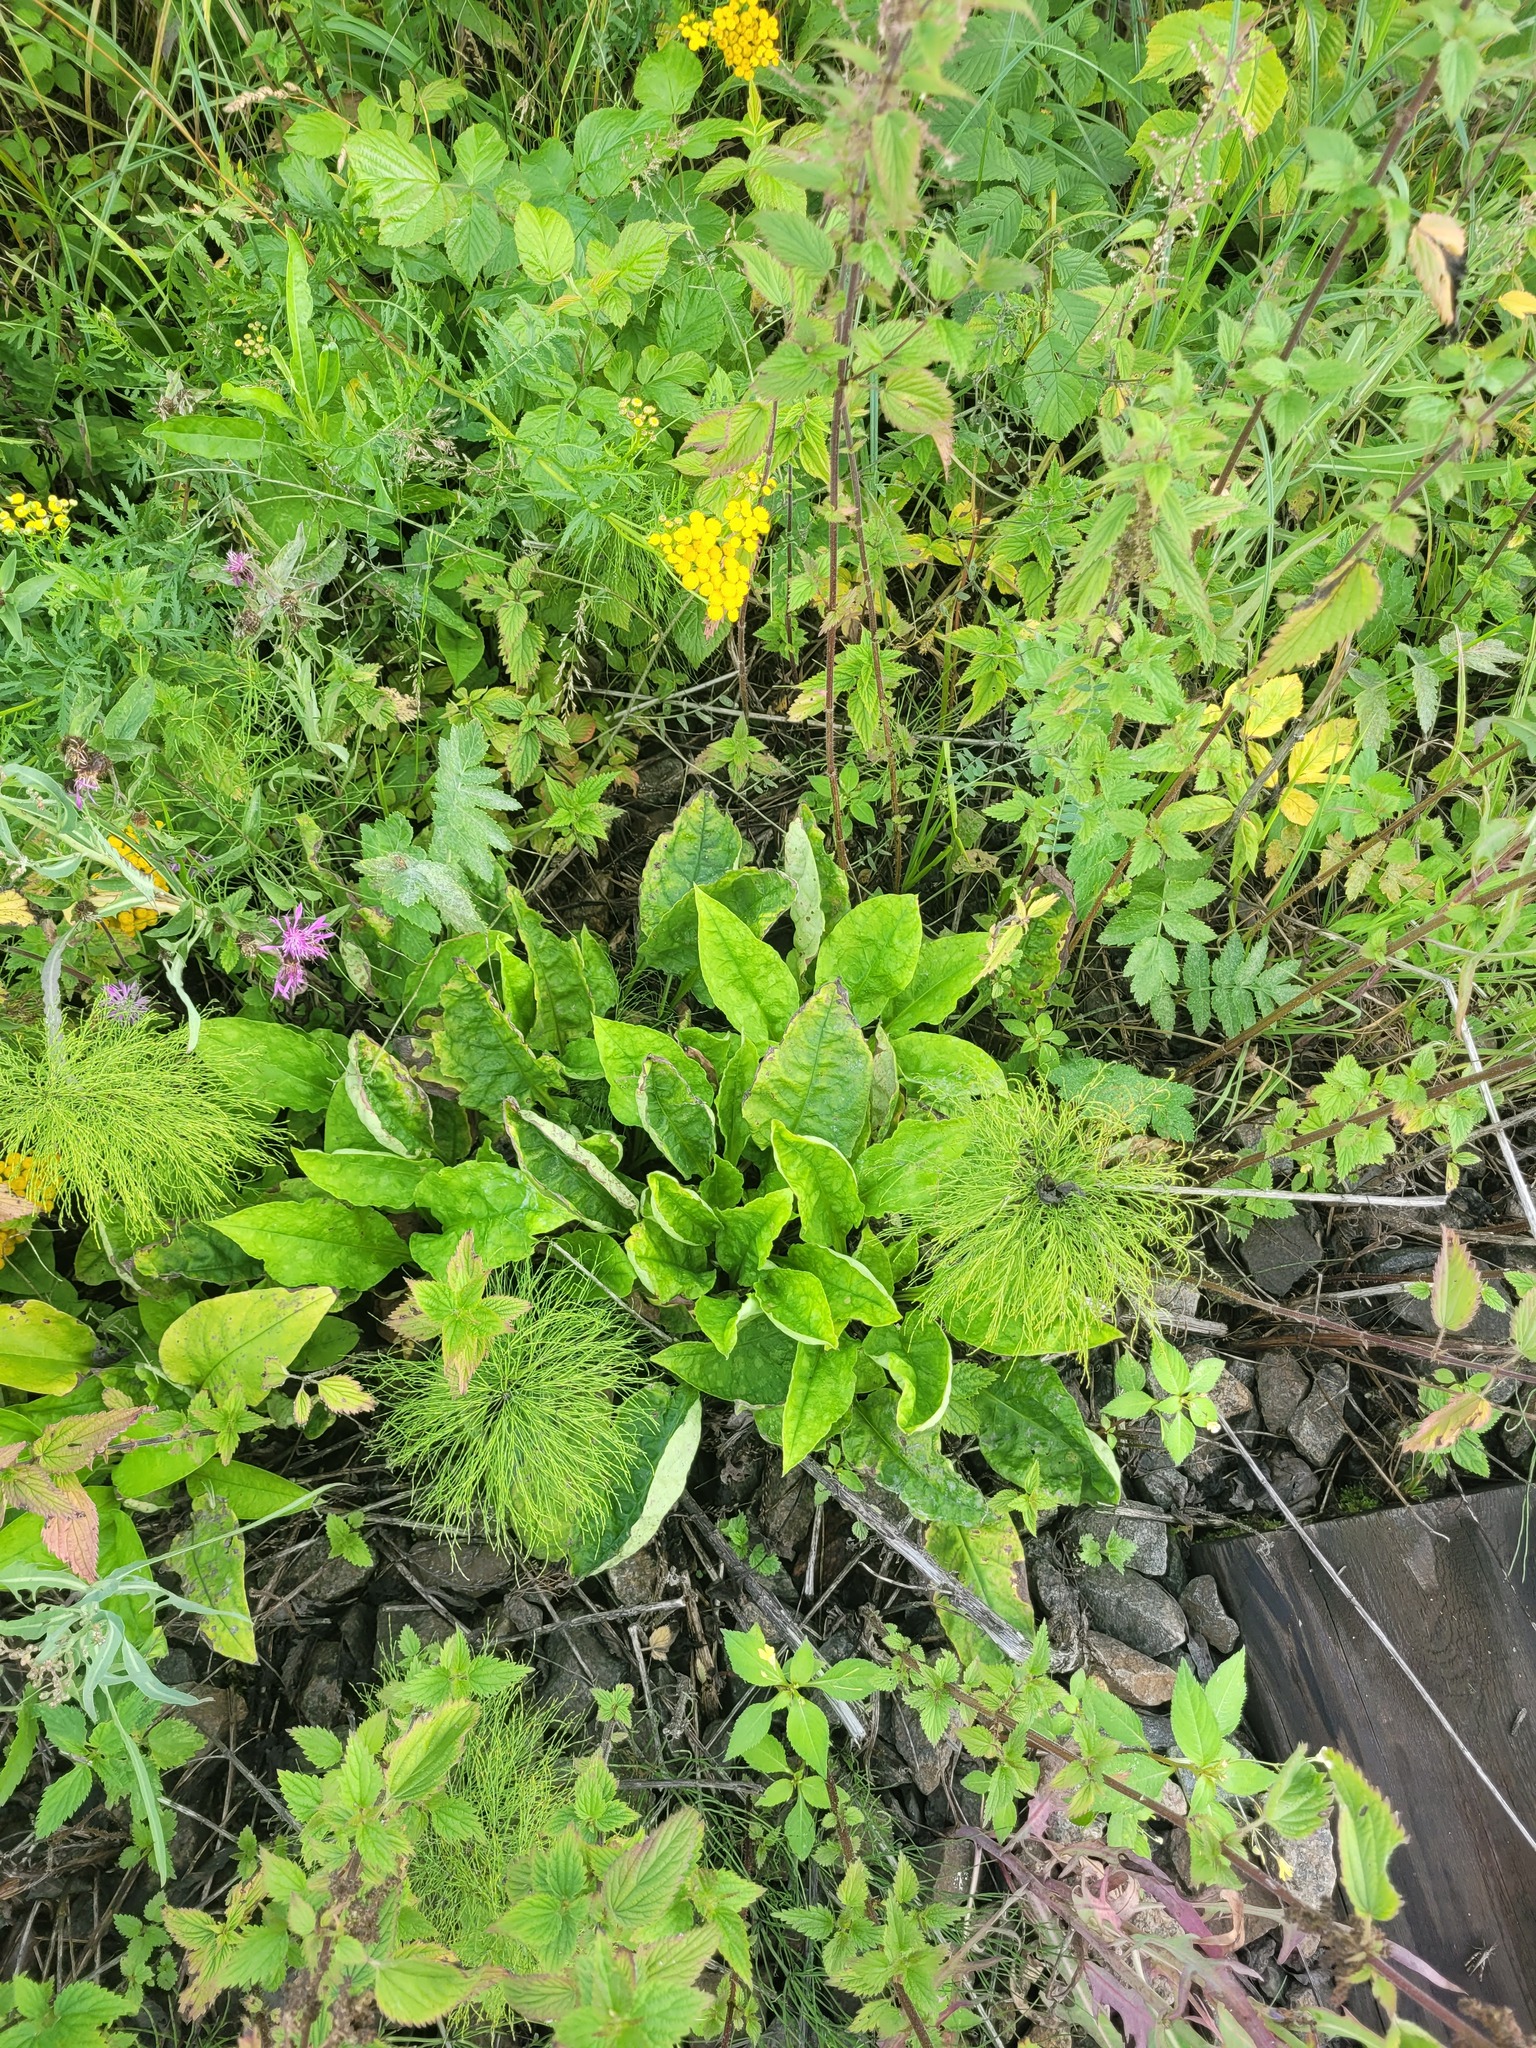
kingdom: Plantae
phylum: Tracheophyta
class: Magnoliopsida
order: Boraginales
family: Boraginaceae
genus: Pulmonaria
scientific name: Pulmonaria obscura
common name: Suffolk lungwort
